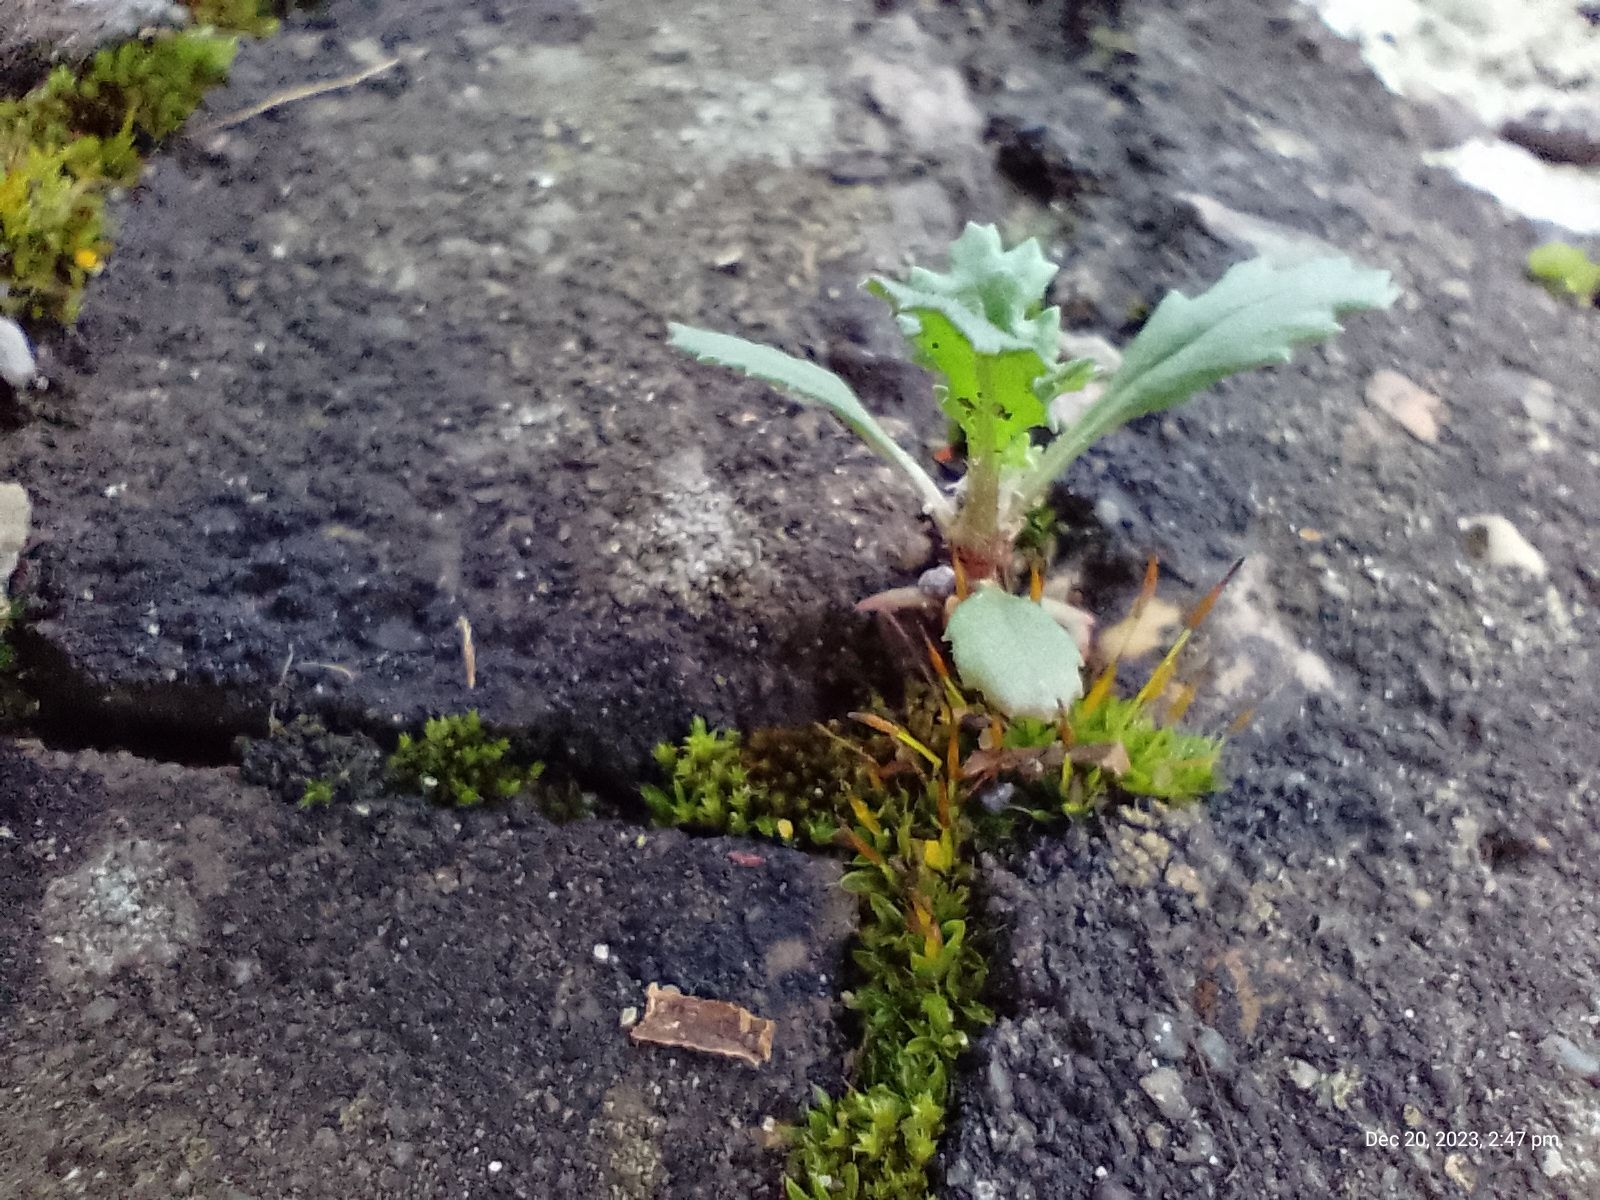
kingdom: Plantae
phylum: Tracheophyta
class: Magnoliopsida
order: Asterales
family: Asteraceae
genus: Senecio
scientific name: Senecio vulgaris
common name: Old-man-in-the-spring
